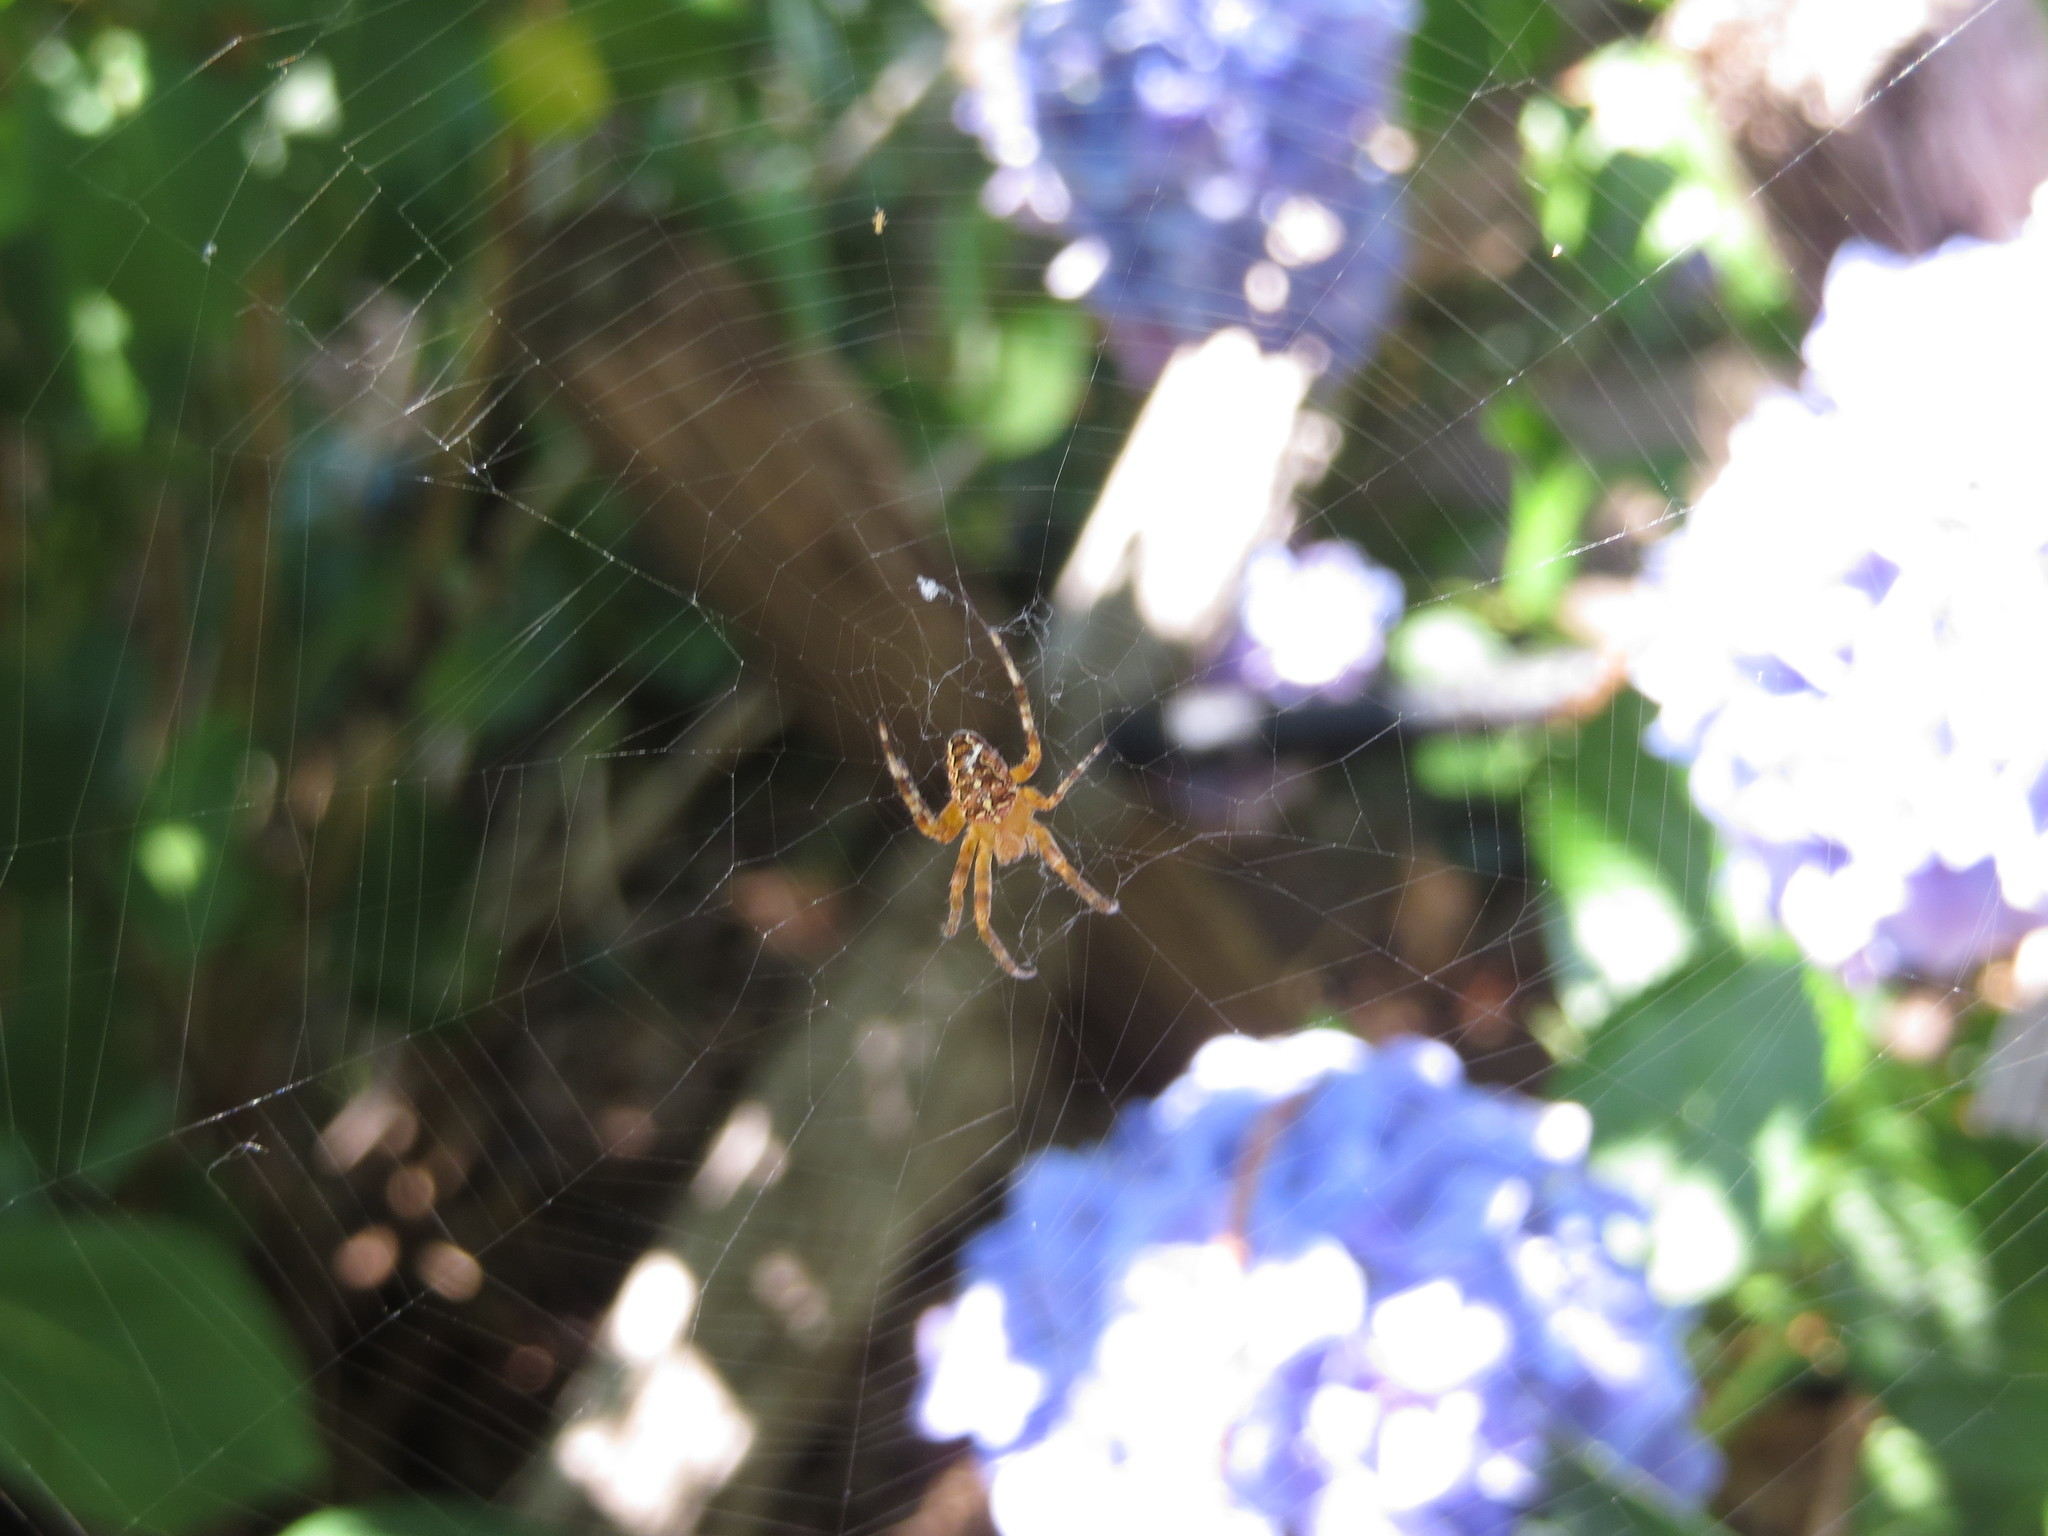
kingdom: Animalia
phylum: Arthropoda
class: Arachnida
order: Araneae
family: Araneidae
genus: Araneus
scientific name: Araneus diadematus
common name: Cross orbweaver
